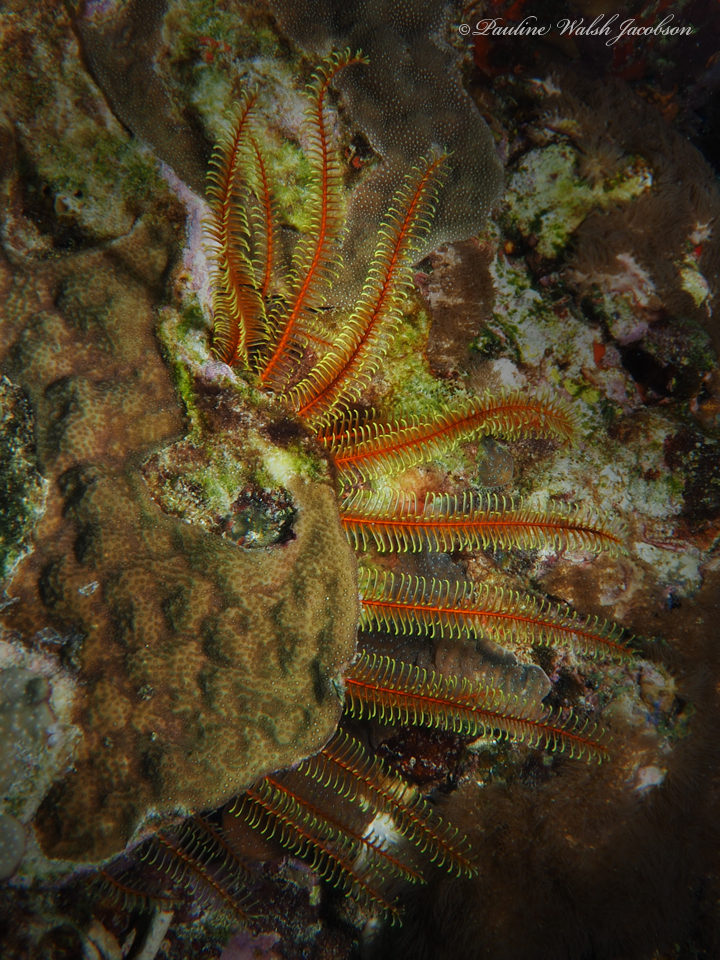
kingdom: Animalia
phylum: Echinodermata
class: Crinoidea
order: Comatulida
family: Comatulidae
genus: Davidaster
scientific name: Davidaster rubiginosus
